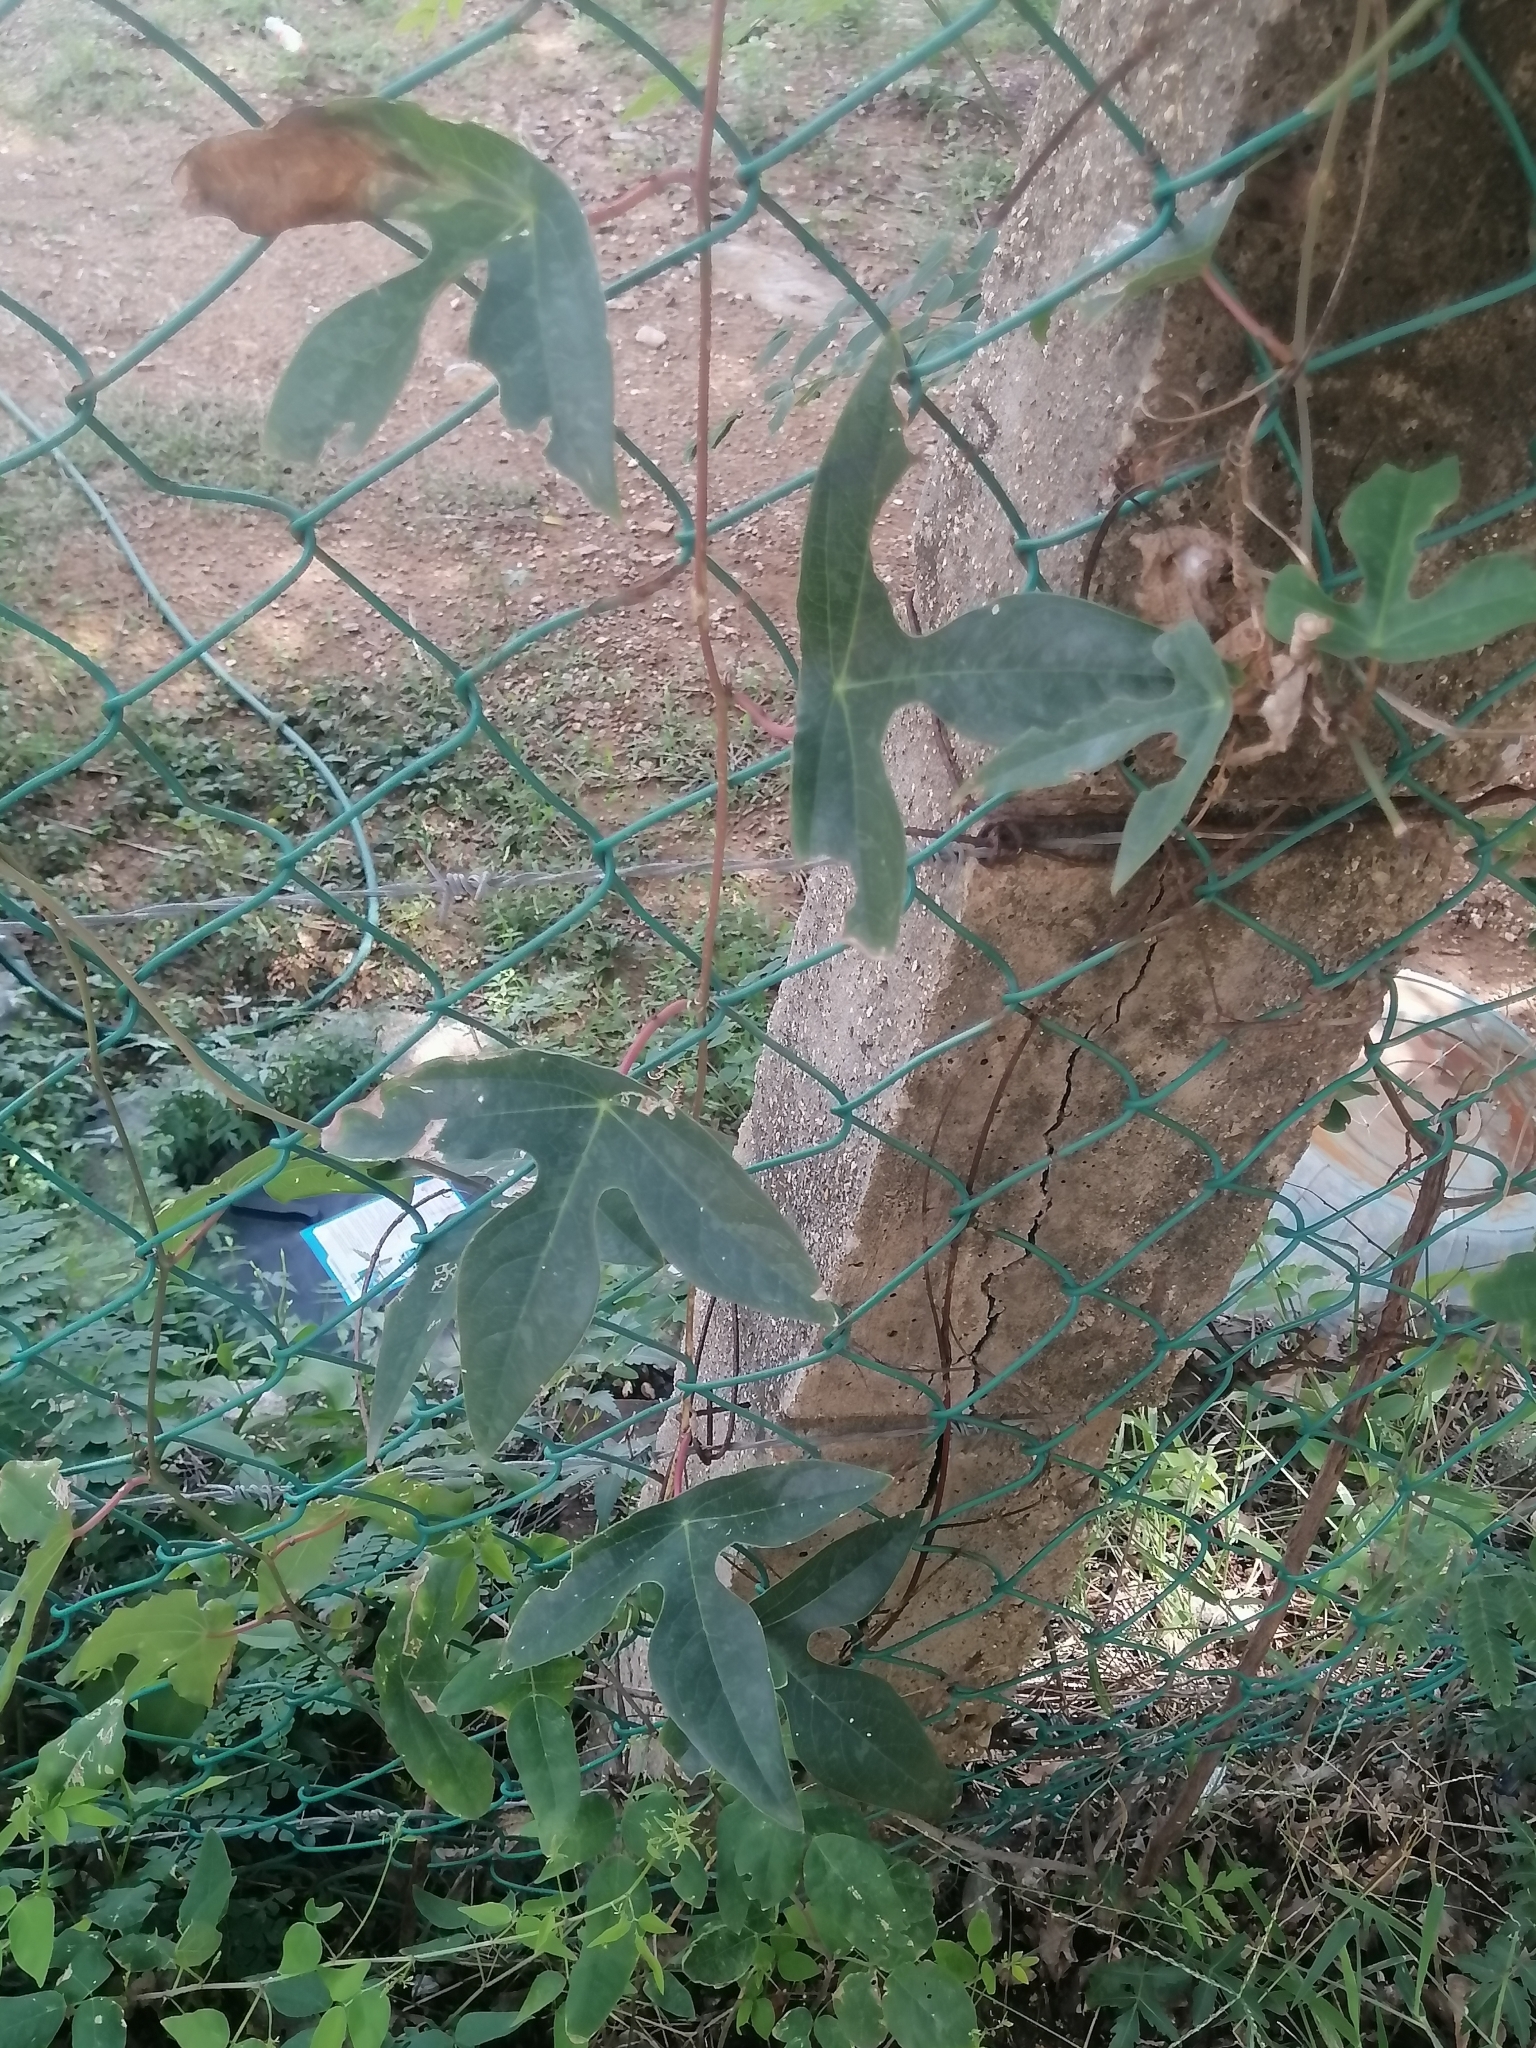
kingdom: Plantae
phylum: Tracheophyta
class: Magnoliopsida
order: Malpighiales
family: Passifloraceae
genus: Passiflora
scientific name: Passiflora viridiflora
